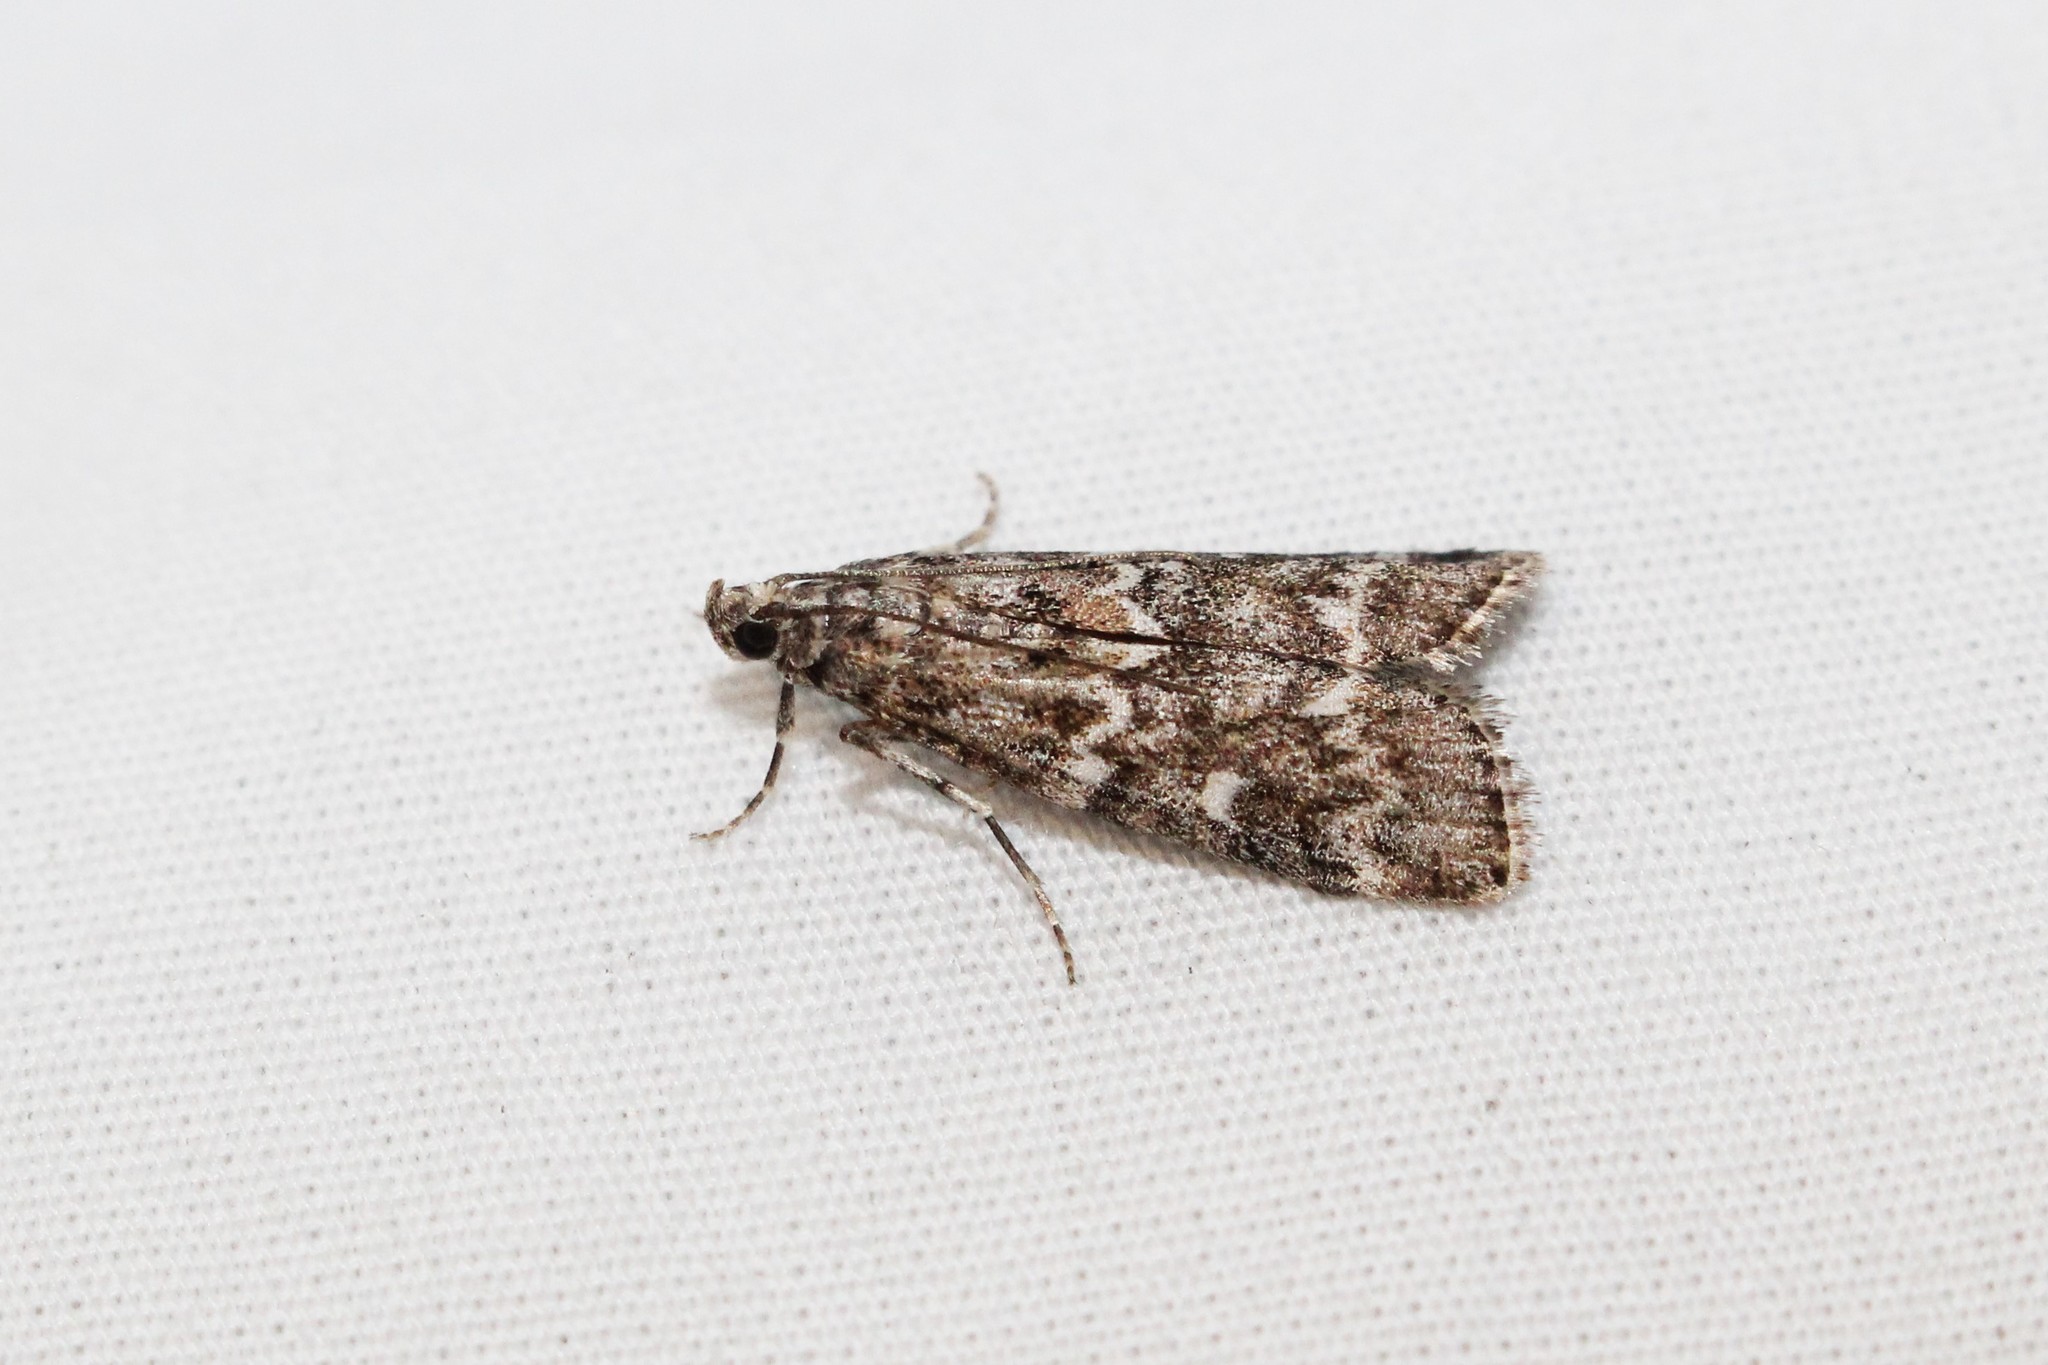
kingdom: Animalia
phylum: Arthropoda
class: Insecta
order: Lepidoptera
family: Pyralidae
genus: Dioryctria
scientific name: Dioryctria reniculelloides
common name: Spruce coneworm moth
